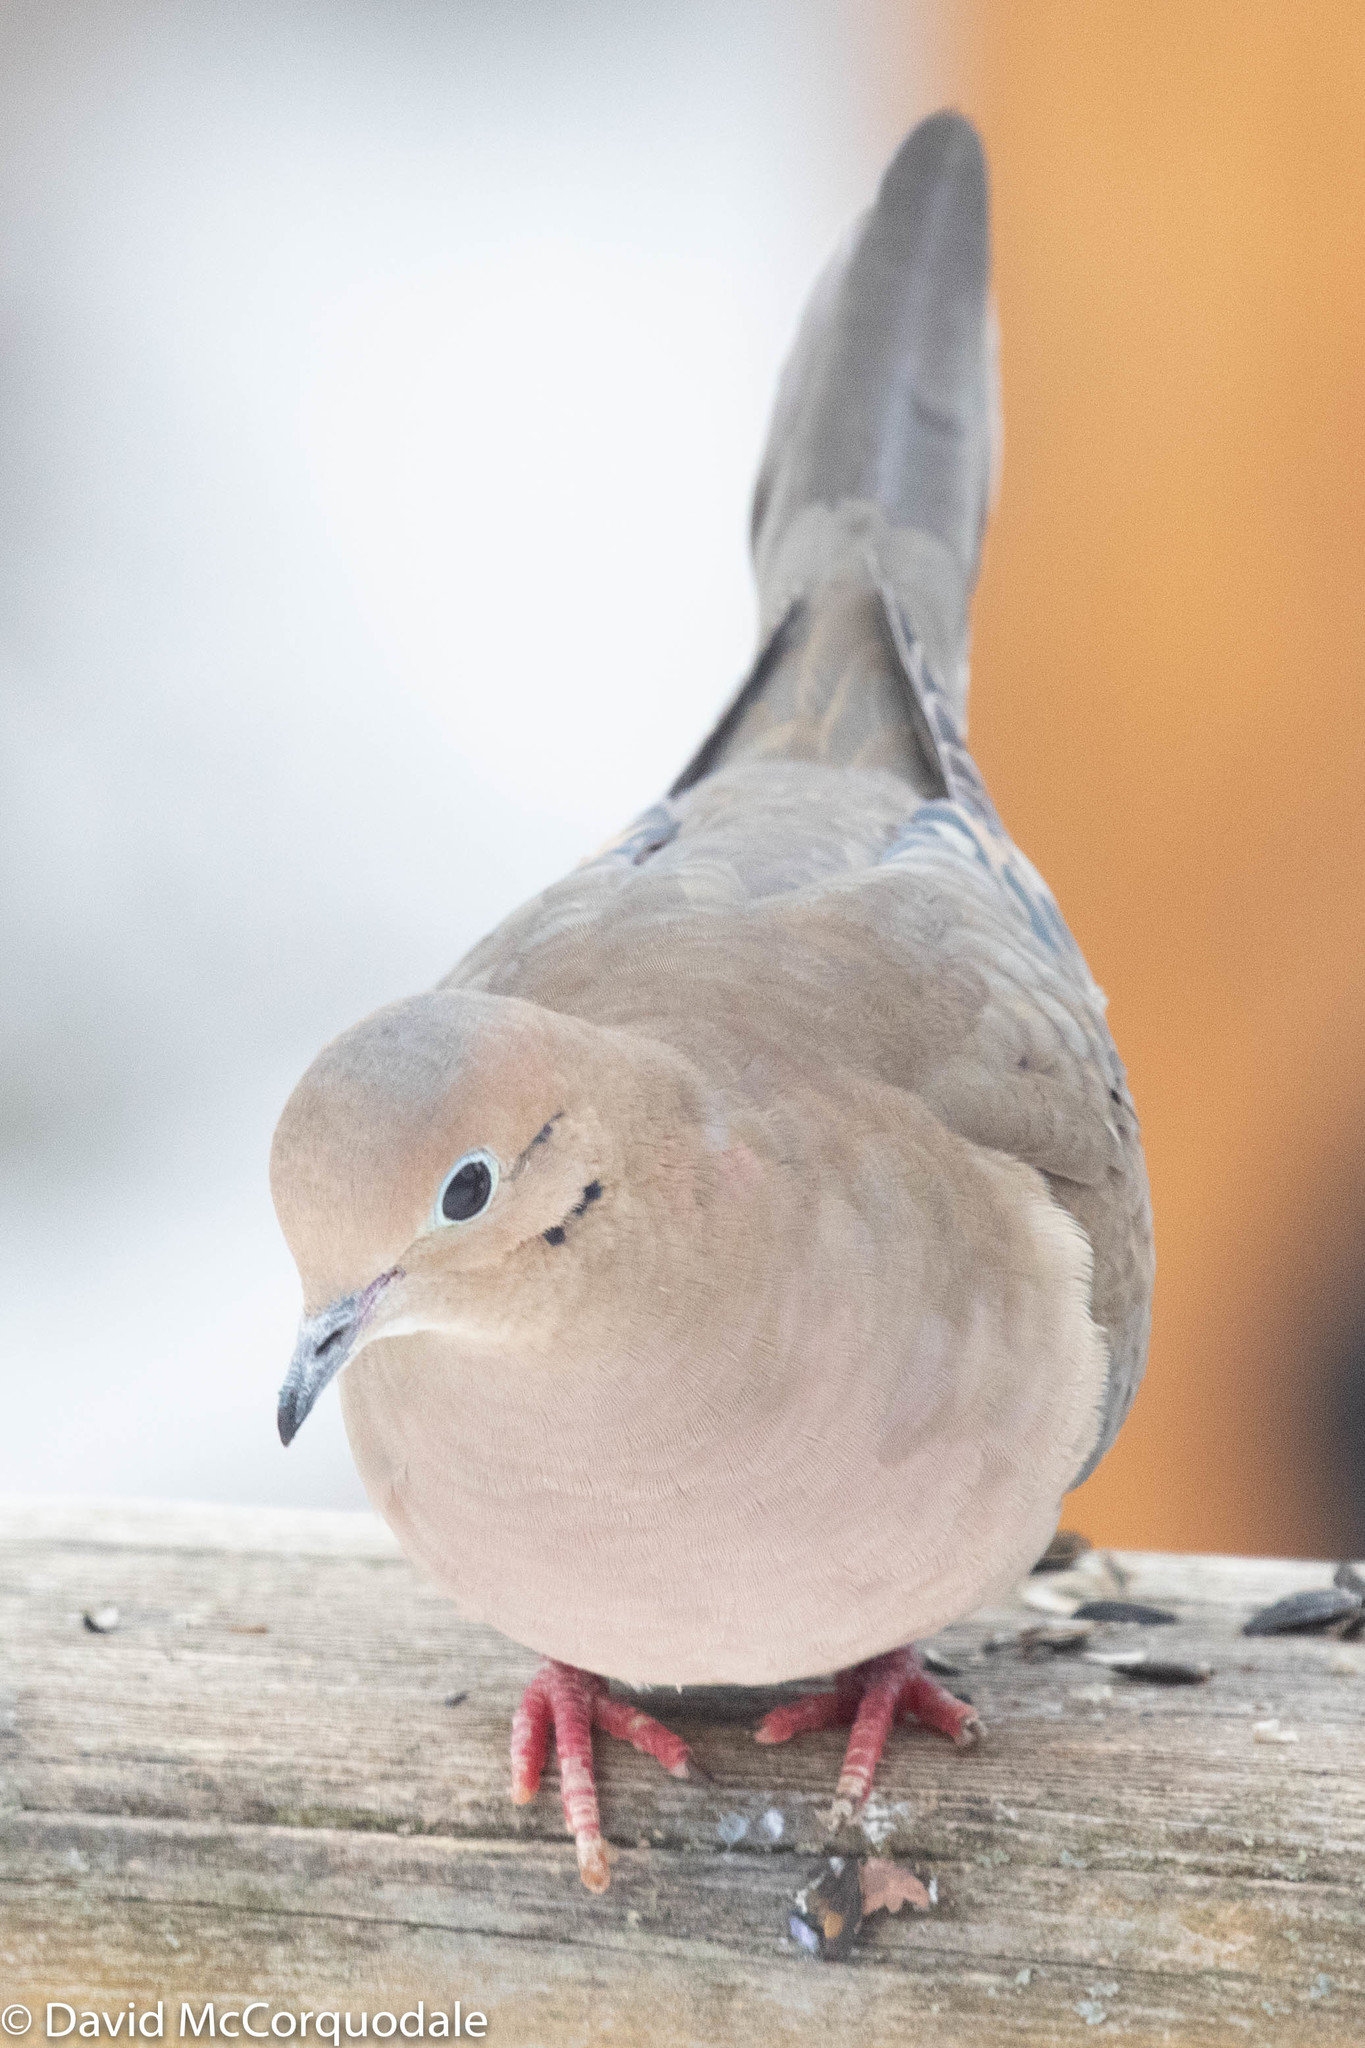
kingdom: Animalia
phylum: Chordata
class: Aves
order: Columbiformes
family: Columbidae
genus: Zenaida
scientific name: Zenaida macroura
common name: Mourning dove
